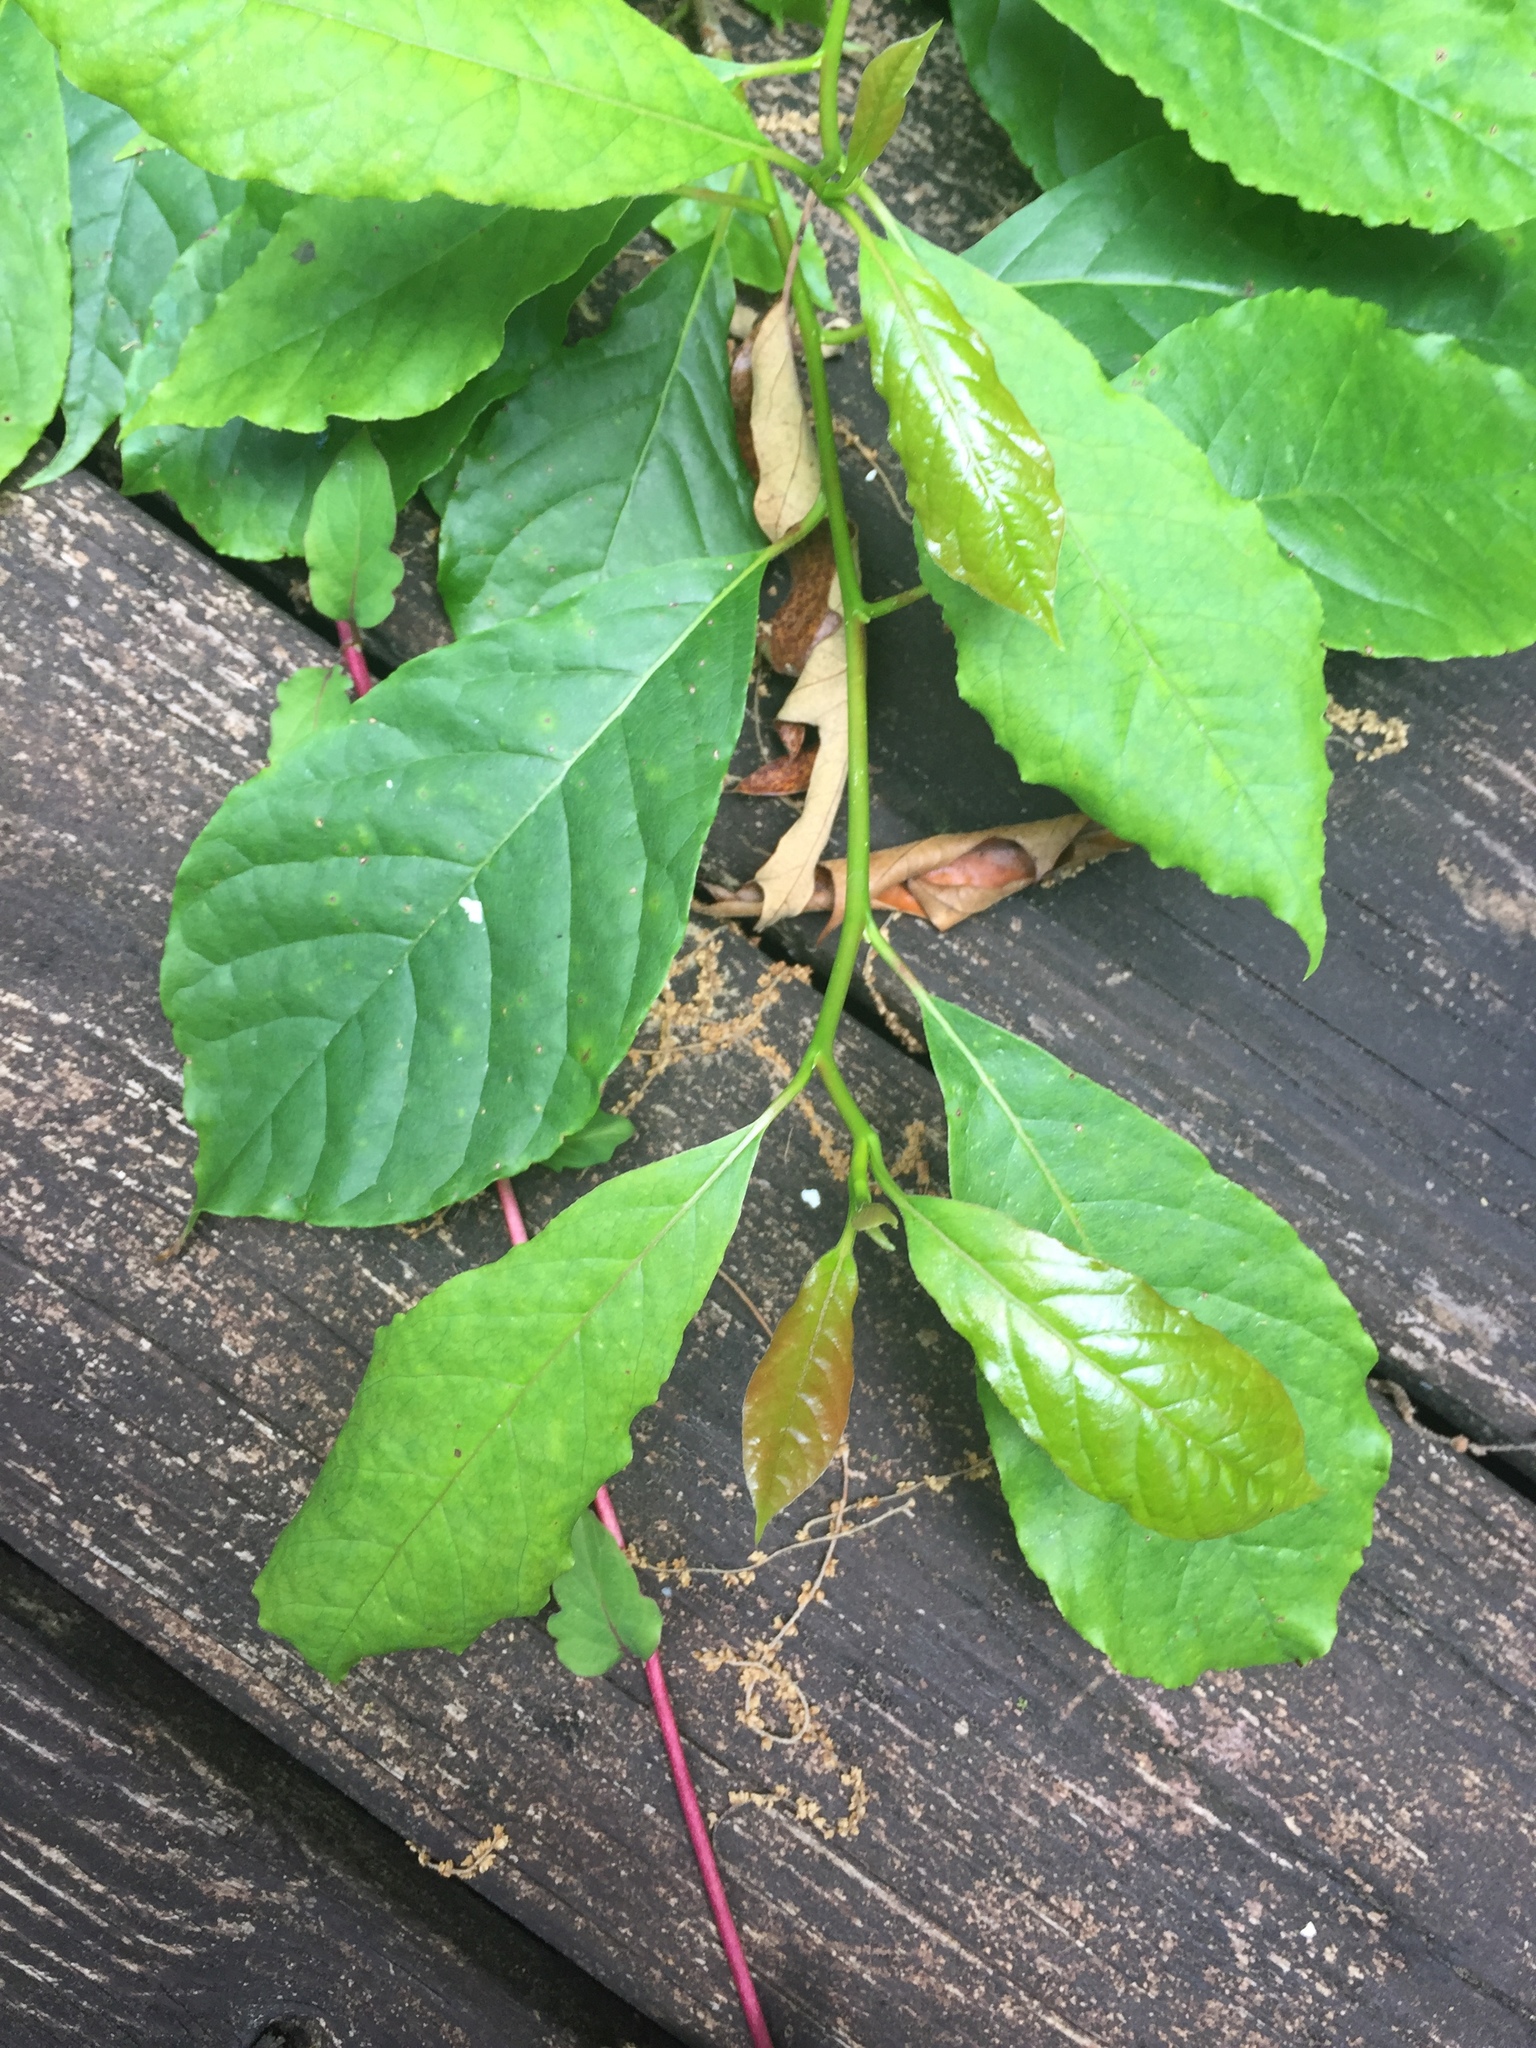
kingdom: Plantae
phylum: Tracheophyta
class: Magnoliopsida
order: Cornales
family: Nyssaceae
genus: Nyssa
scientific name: Nyssa sylvatica
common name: Black tupelo
